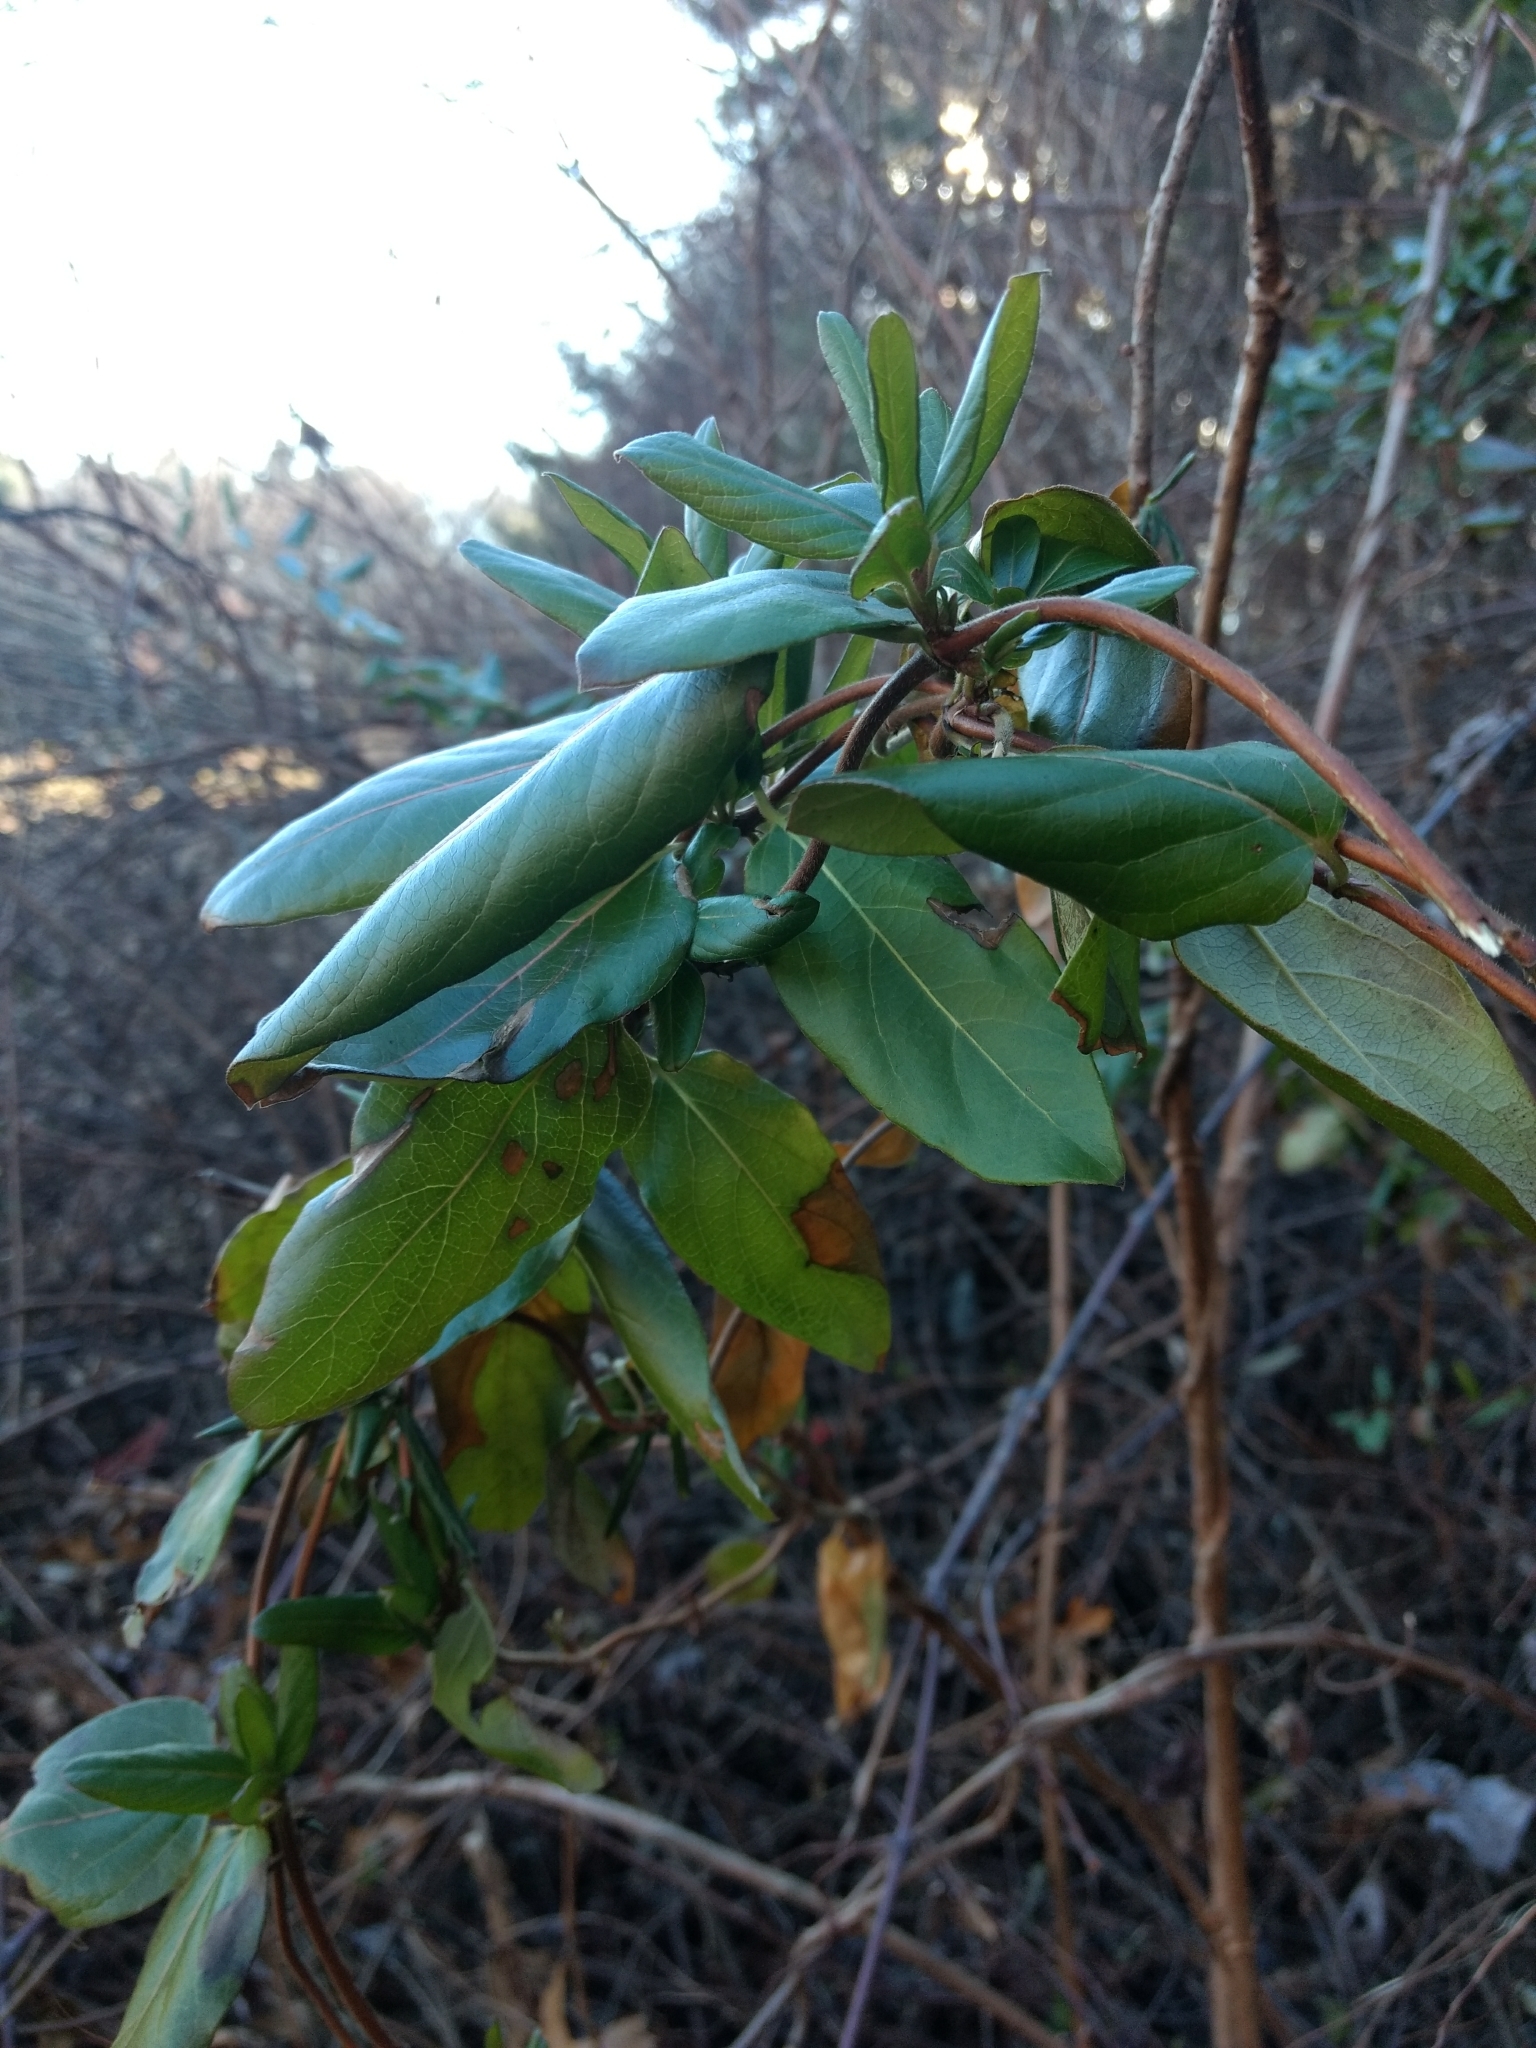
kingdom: Plantae
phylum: Tracheophyta
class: Magnoliopsida
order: Dipsacales
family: Caprifoliaceae
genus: Lonicera
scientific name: Lonicera japonica
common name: Japanese honeysuckle
